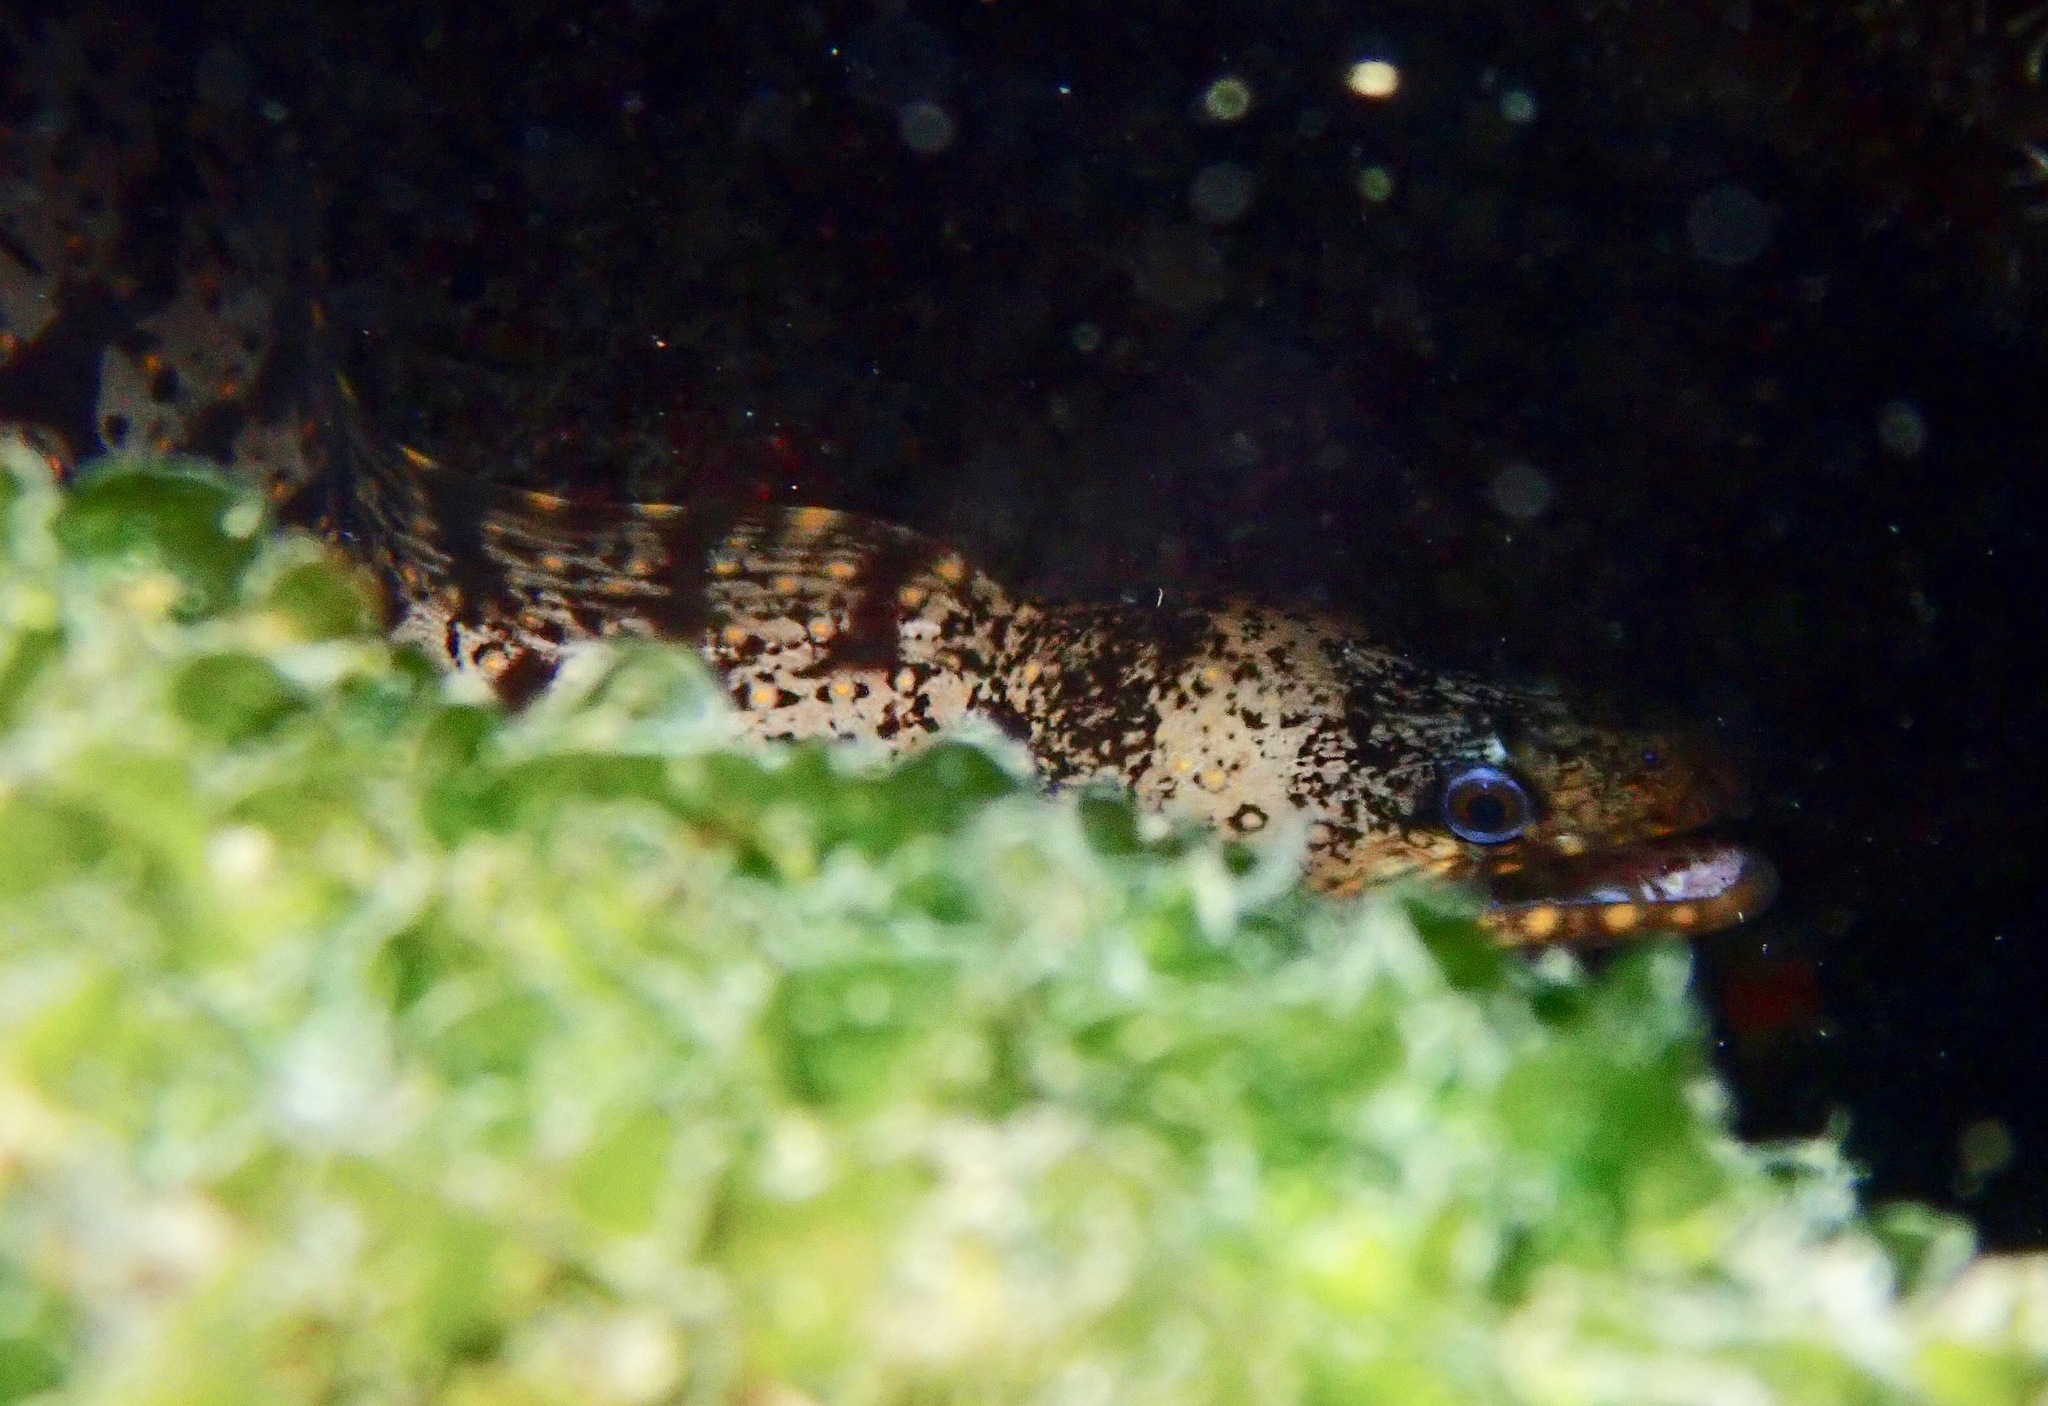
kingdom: Animalia
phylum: Chordata
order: Anguilliformes
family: Muraenidae
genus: Muraena
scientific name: Muraena lentiginosa
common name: Jewel moray
